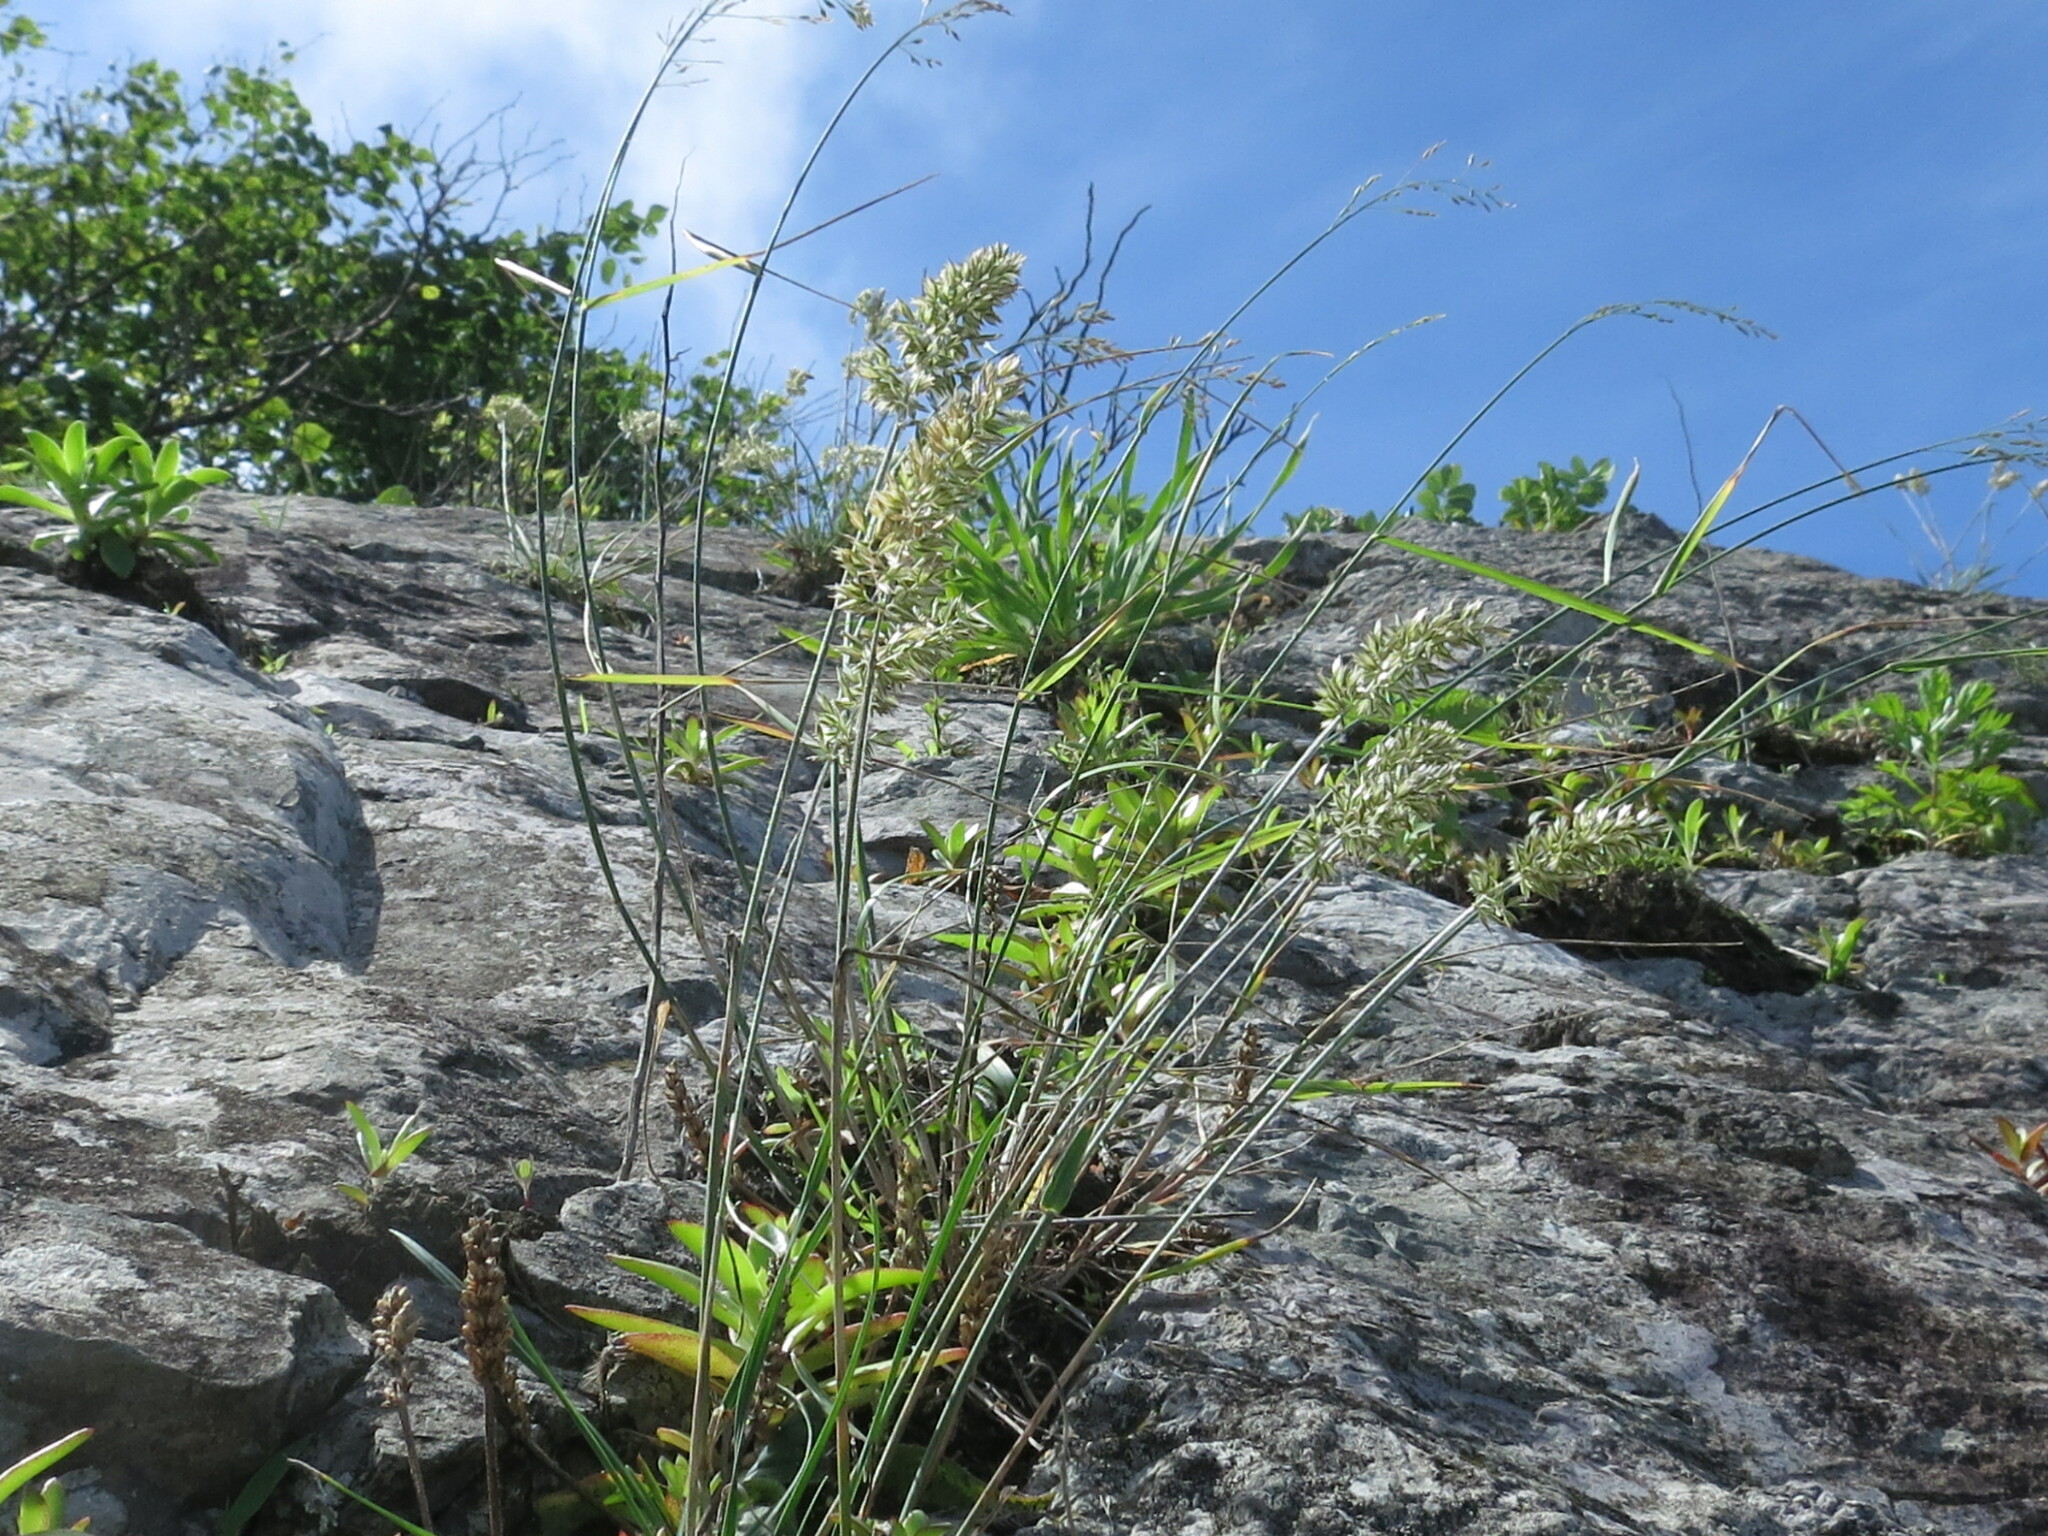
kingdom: Plantae
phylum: Tracheophyta
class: Liliopsida
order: Poales
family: Poaceae
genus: Koeleria
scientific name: Koeleria askoldensis
